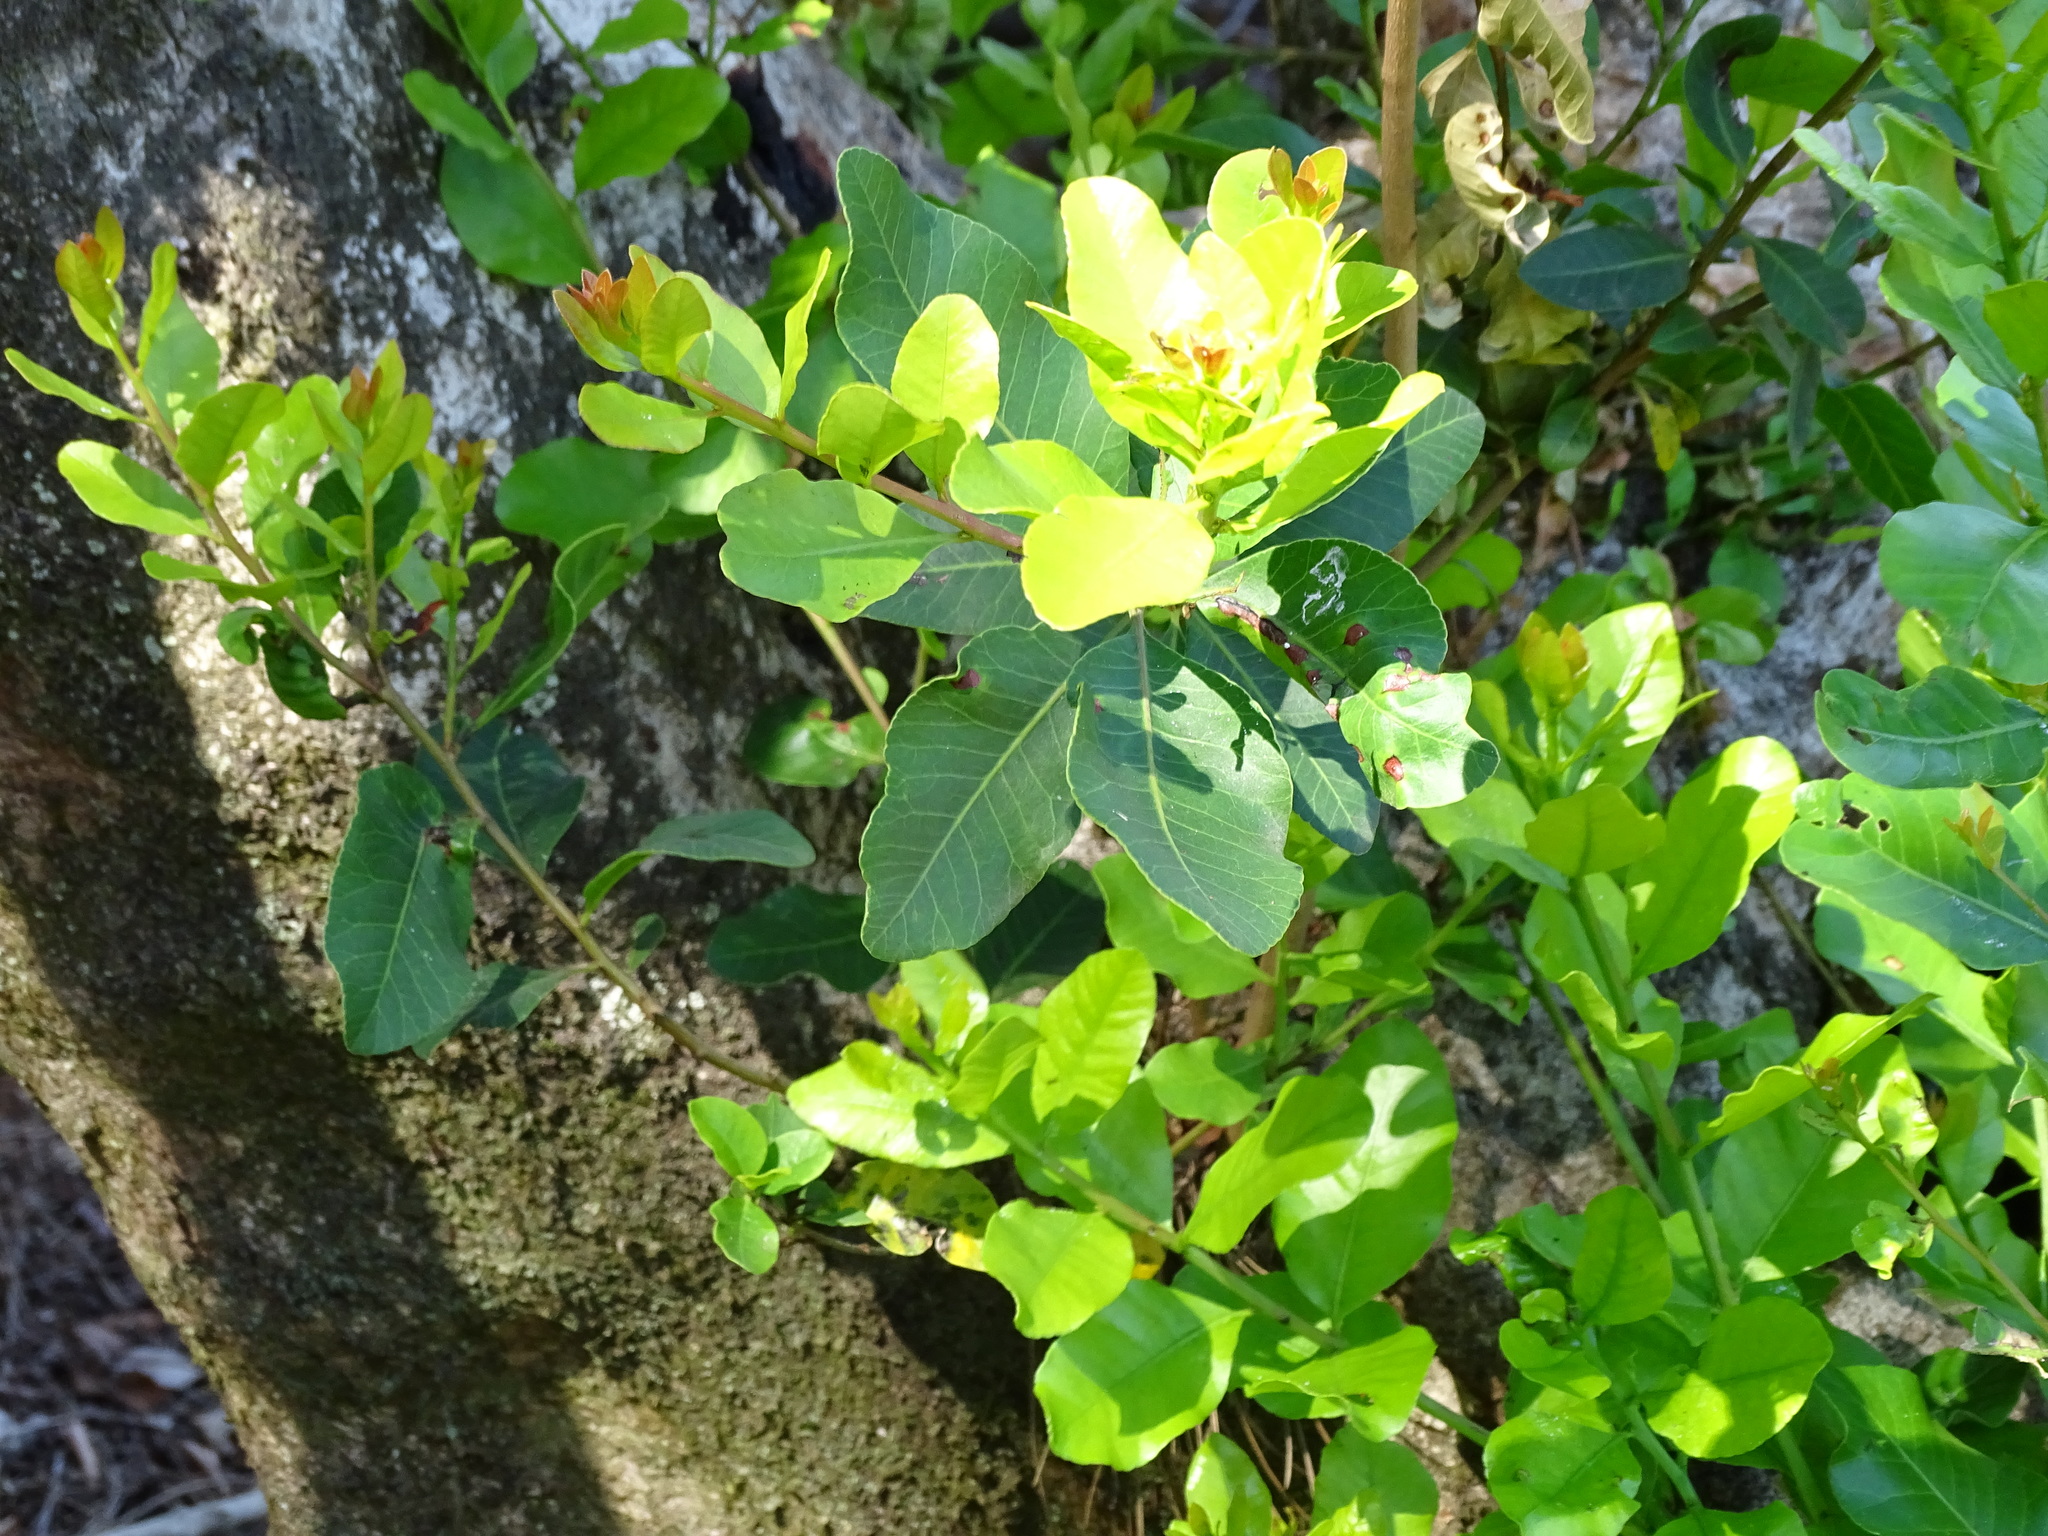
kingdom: Plantae
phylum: Tracheophyta
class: Magnoliopsida
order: Sapindales
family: Anacardiaceae
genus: Lithraea
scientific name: Lithraea caustica
